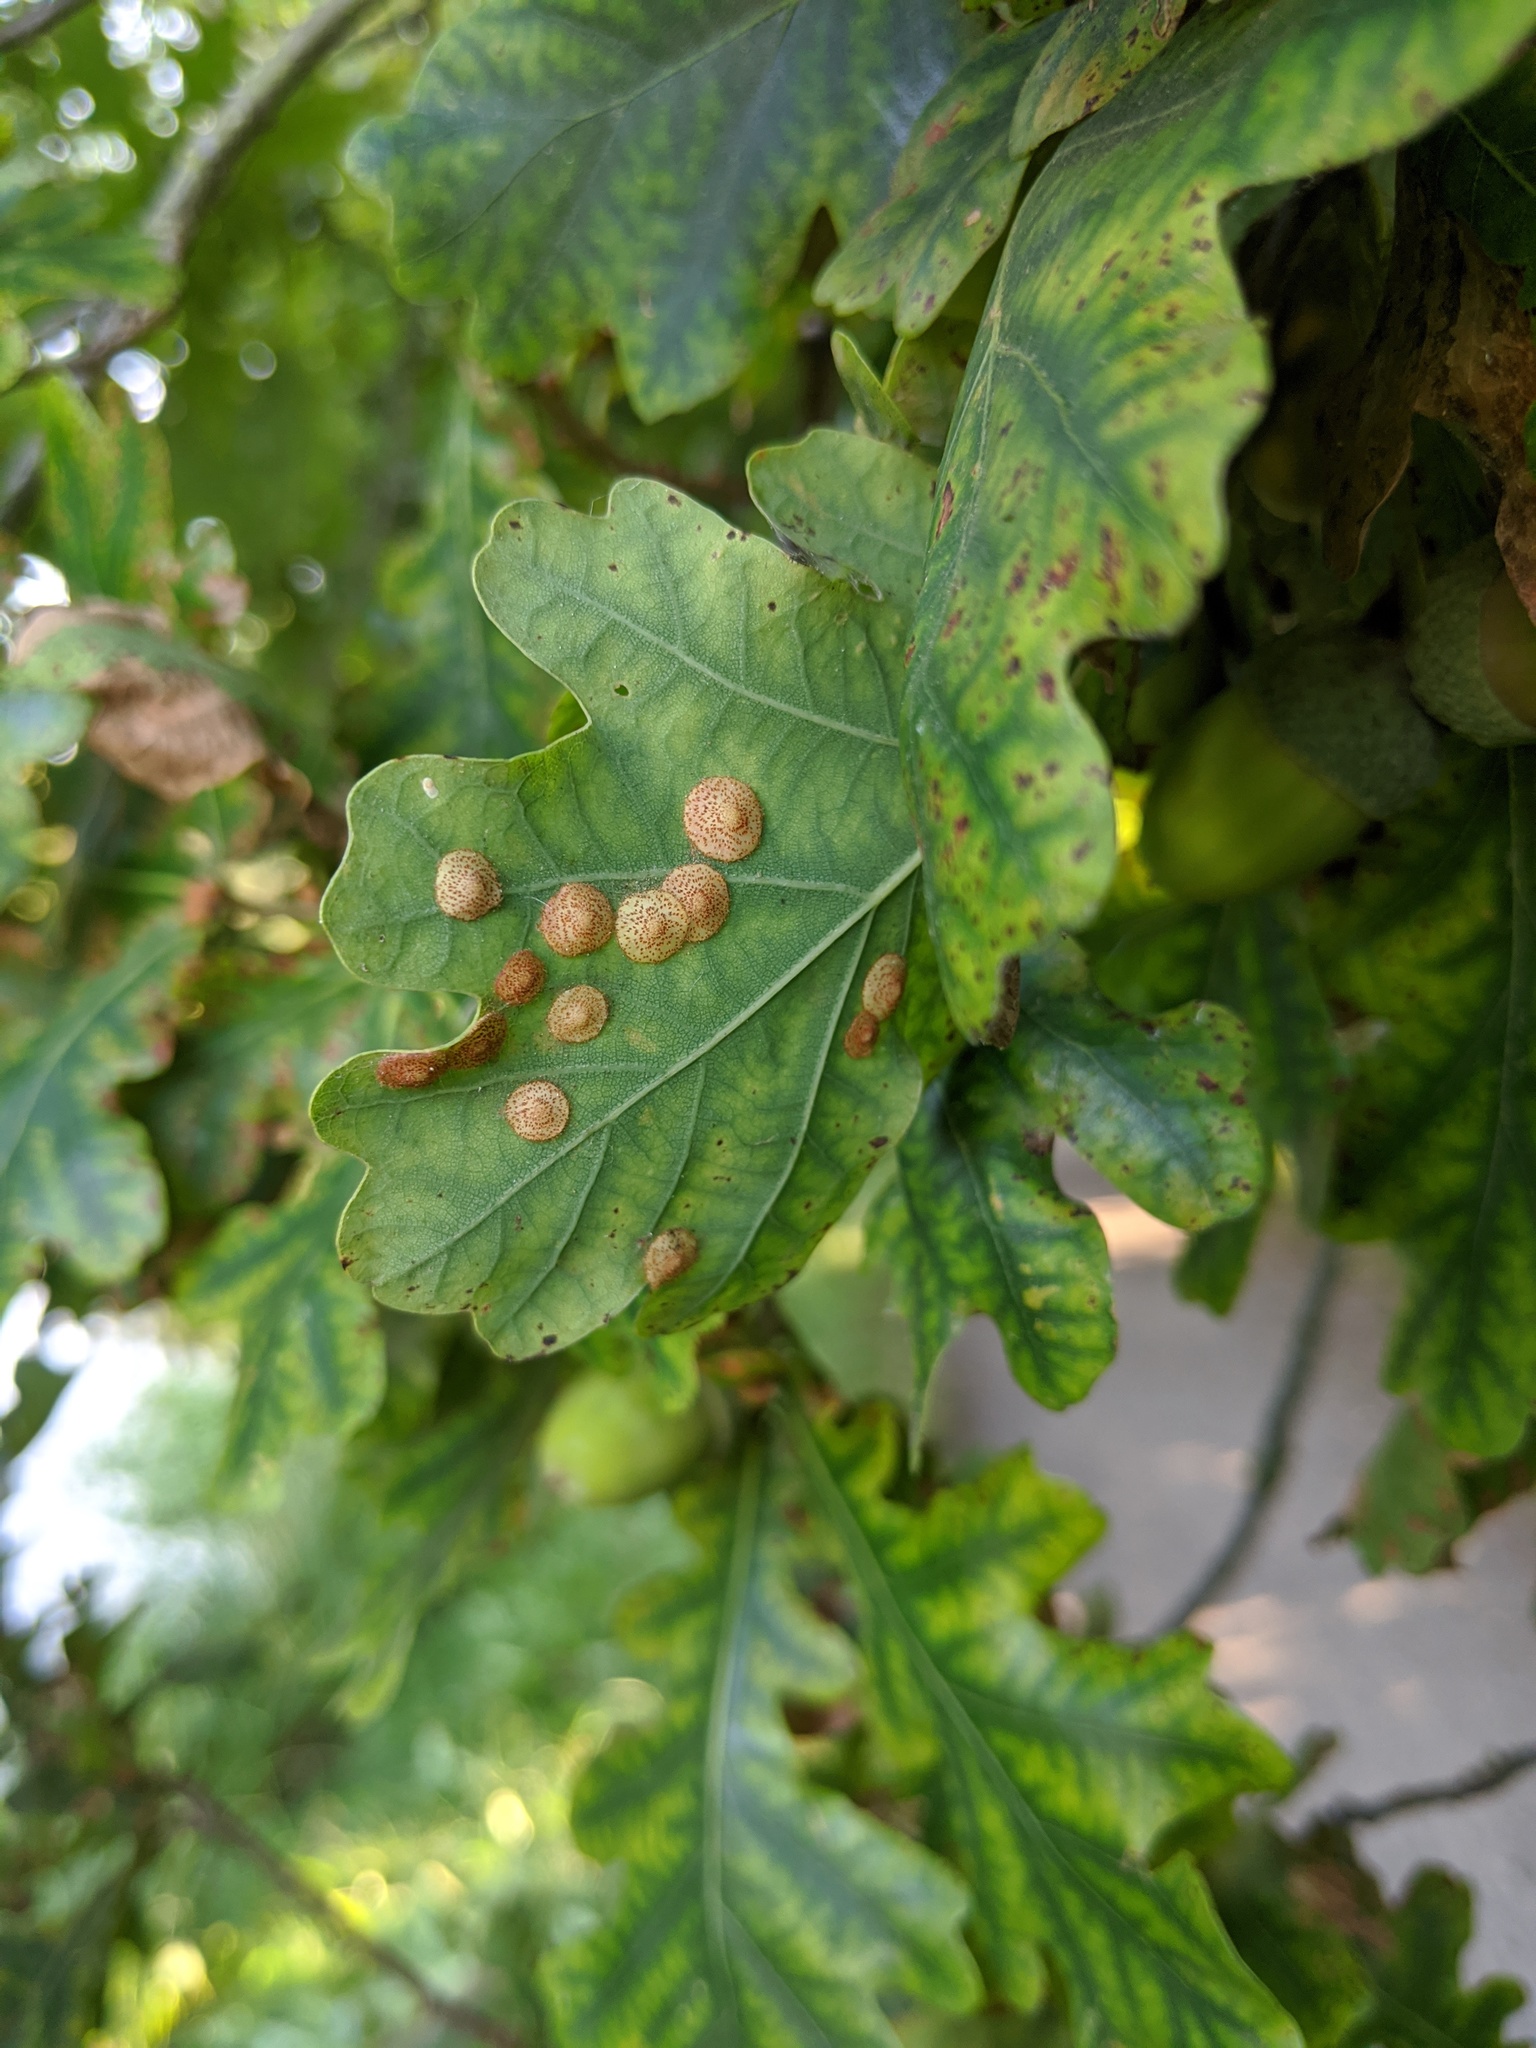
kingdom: Animalia
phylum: Arthropoda
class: Insecta
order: Hymenoptera
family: Cynipidae
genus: Neuroterus
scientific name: Neuroterus quercusbaccarum
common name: Common spangle gall
